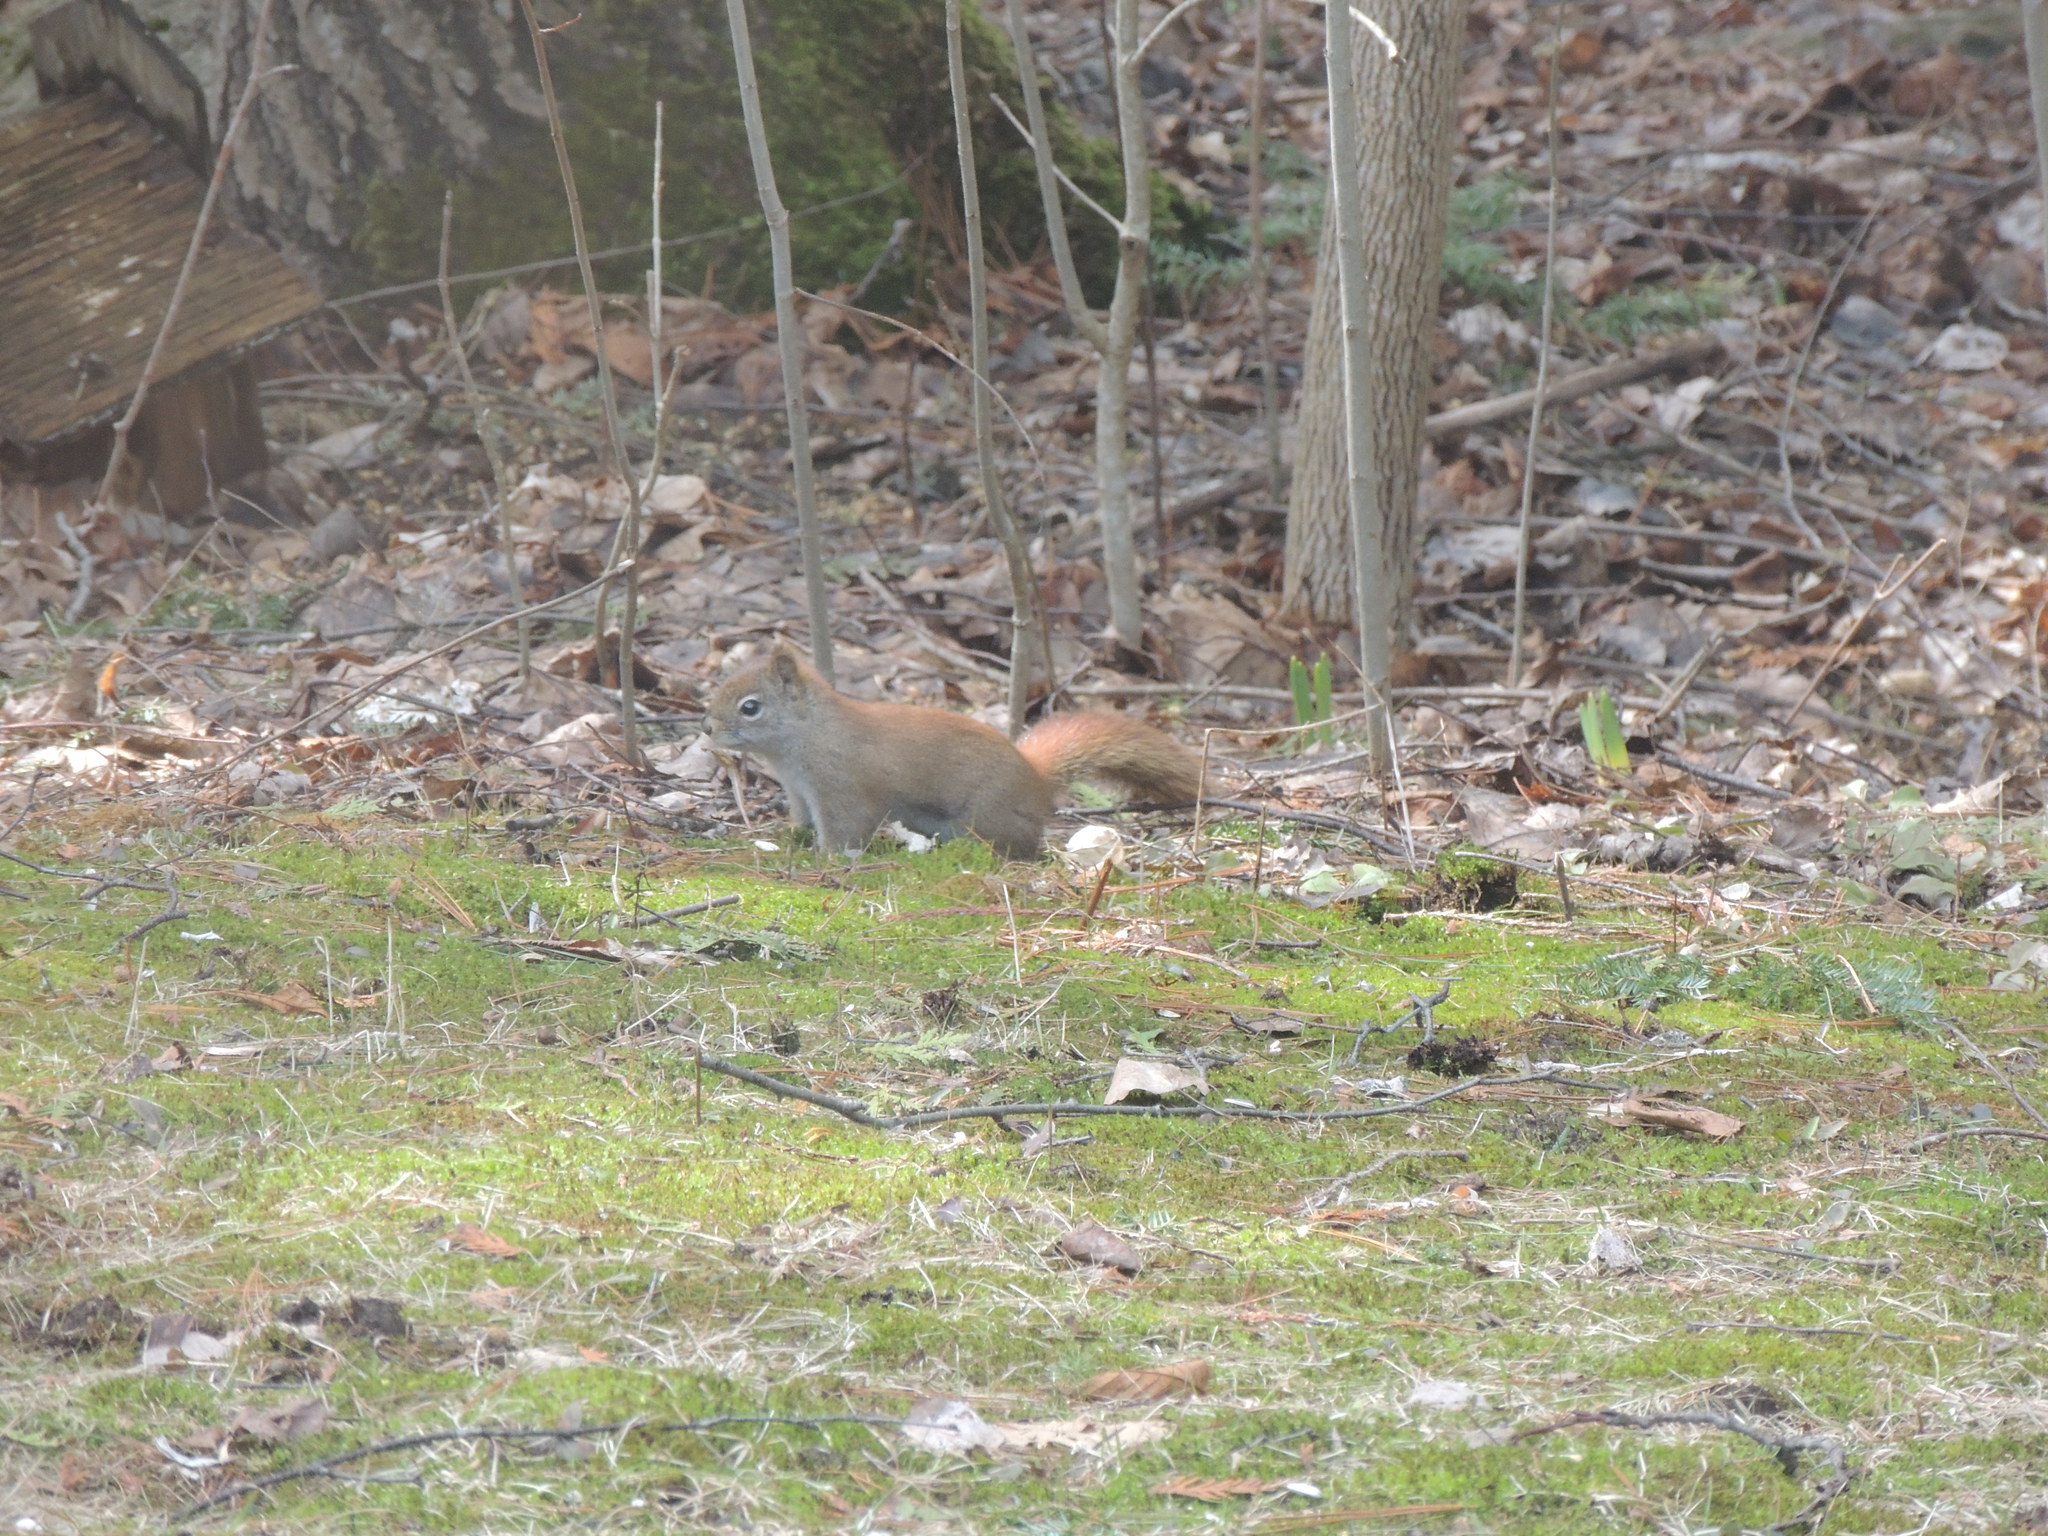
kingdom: Animalia
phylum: Chordata
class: Mammalia
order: Rodentia
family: Sciuridae
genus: Tamiasciurus
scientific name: Tamiasciurus hudsonicus
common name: Red squirrel
